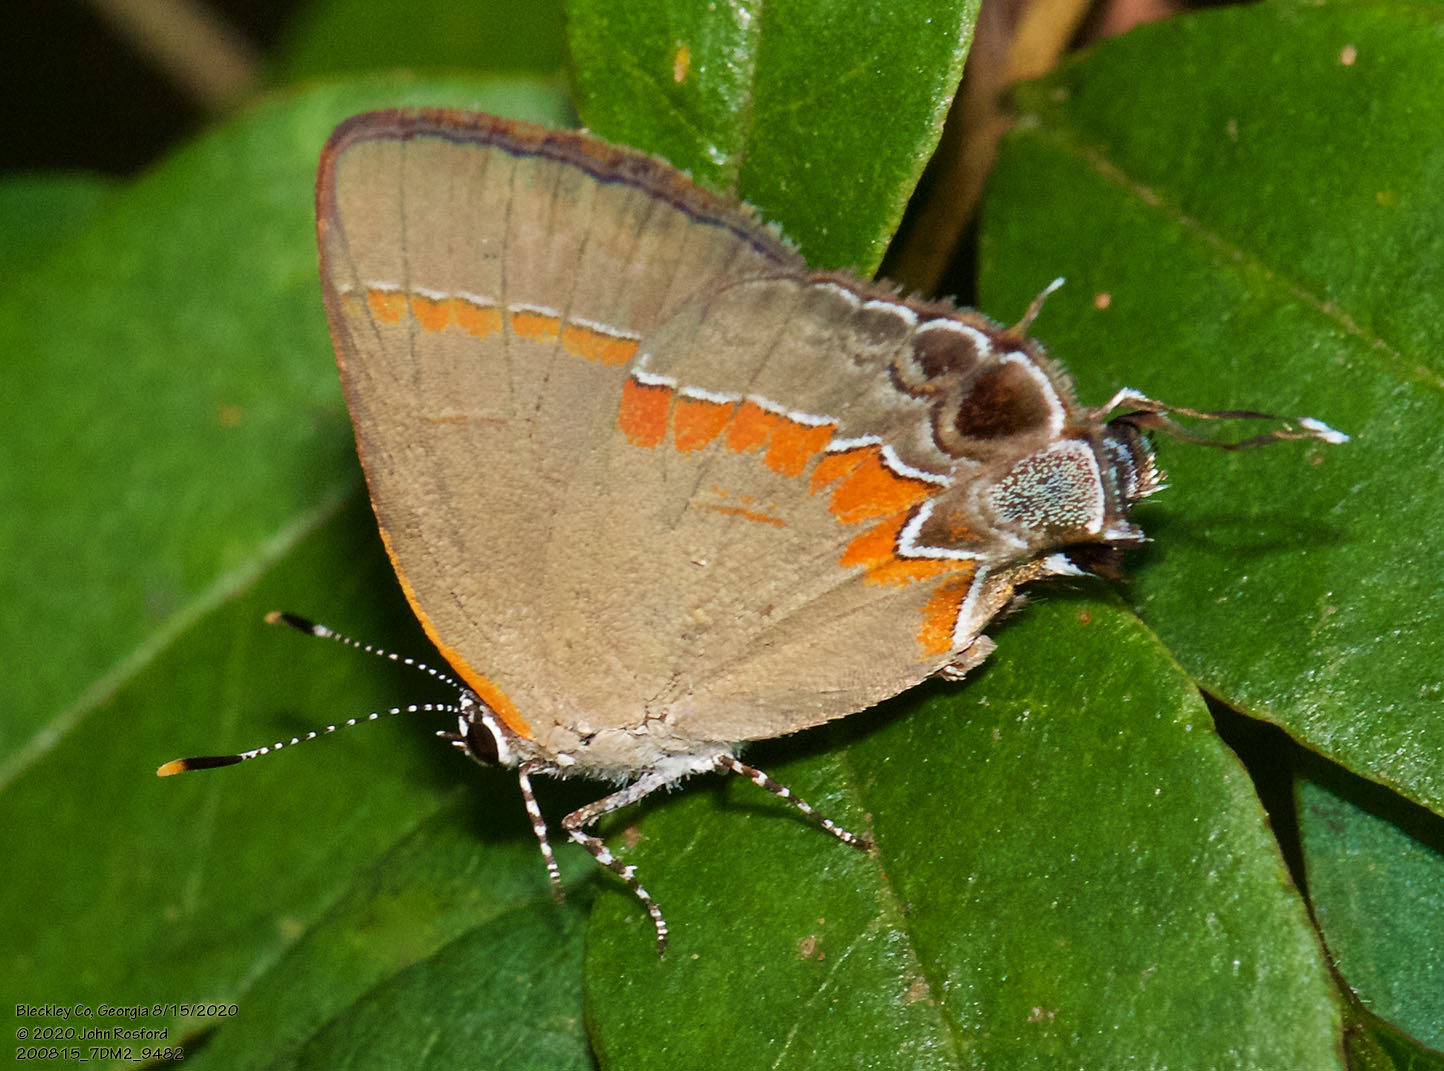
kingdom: Animalia
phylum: Arthropoda
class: Insecta
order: Lepidoptera
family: Lycaenidae
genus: Calycopis
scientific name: Calycopis cecrops
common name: Red-banded hairstreak
